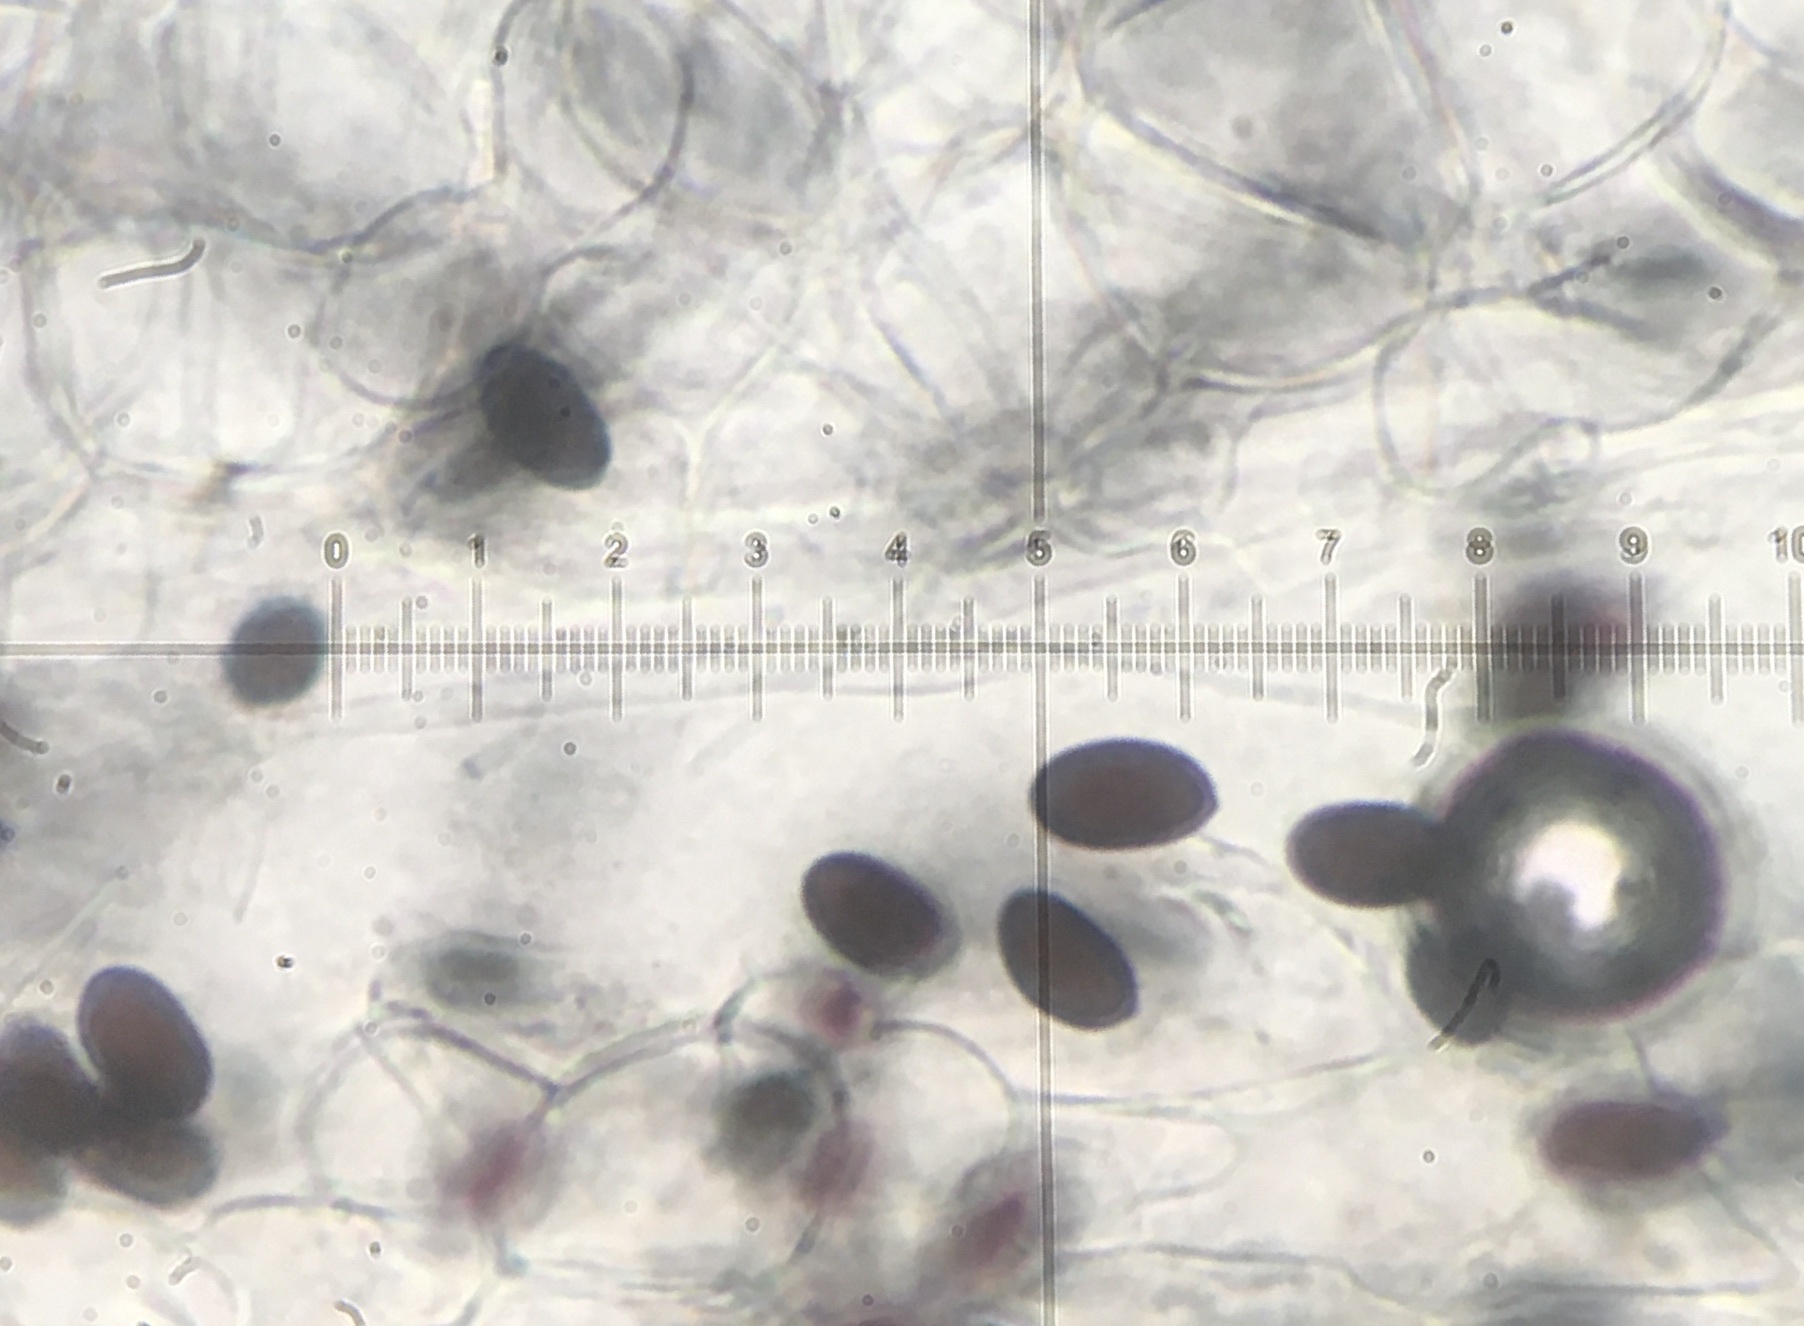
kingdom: Fungi
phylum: Basidiomycota
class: Agaricomycetes
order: Agaricales
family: Psathyrellaceae
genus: Coprinopsis
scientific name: Coprinopsis radiata
